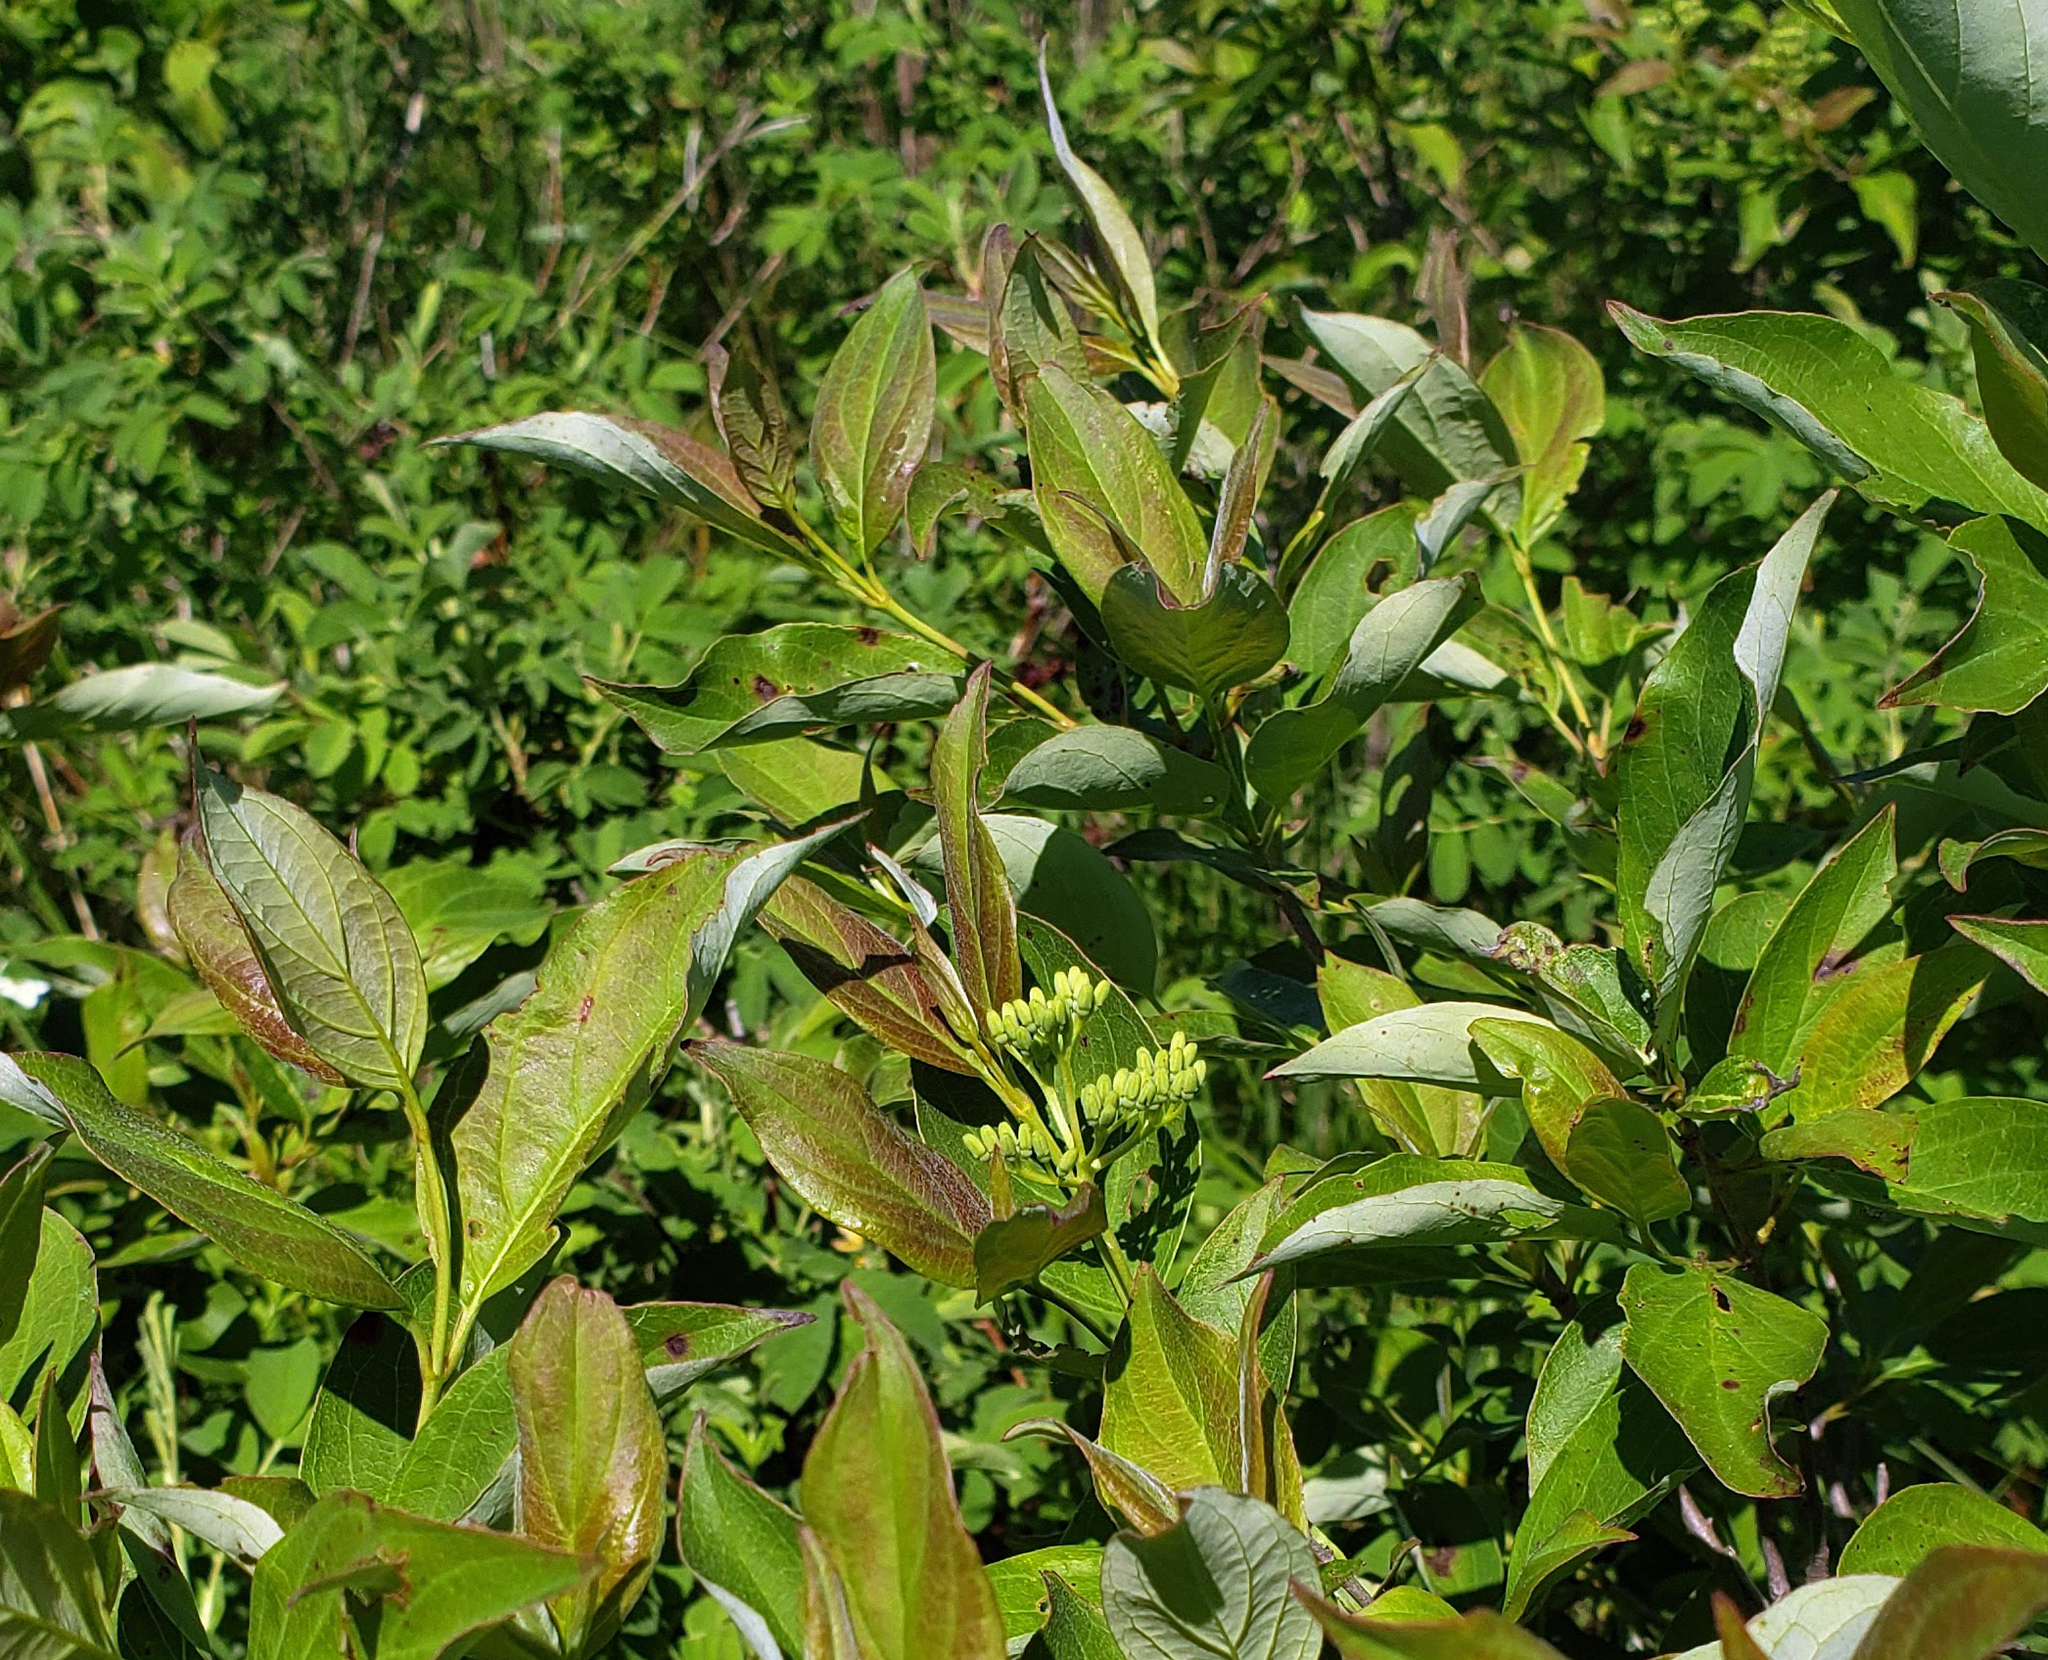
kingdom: Plantae
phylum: Tracheophyta
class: Magnoliopsida
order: Cornales
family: Cornaceae
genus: Cornus
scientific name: Cornus racemosa
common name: Panicled dogwood
